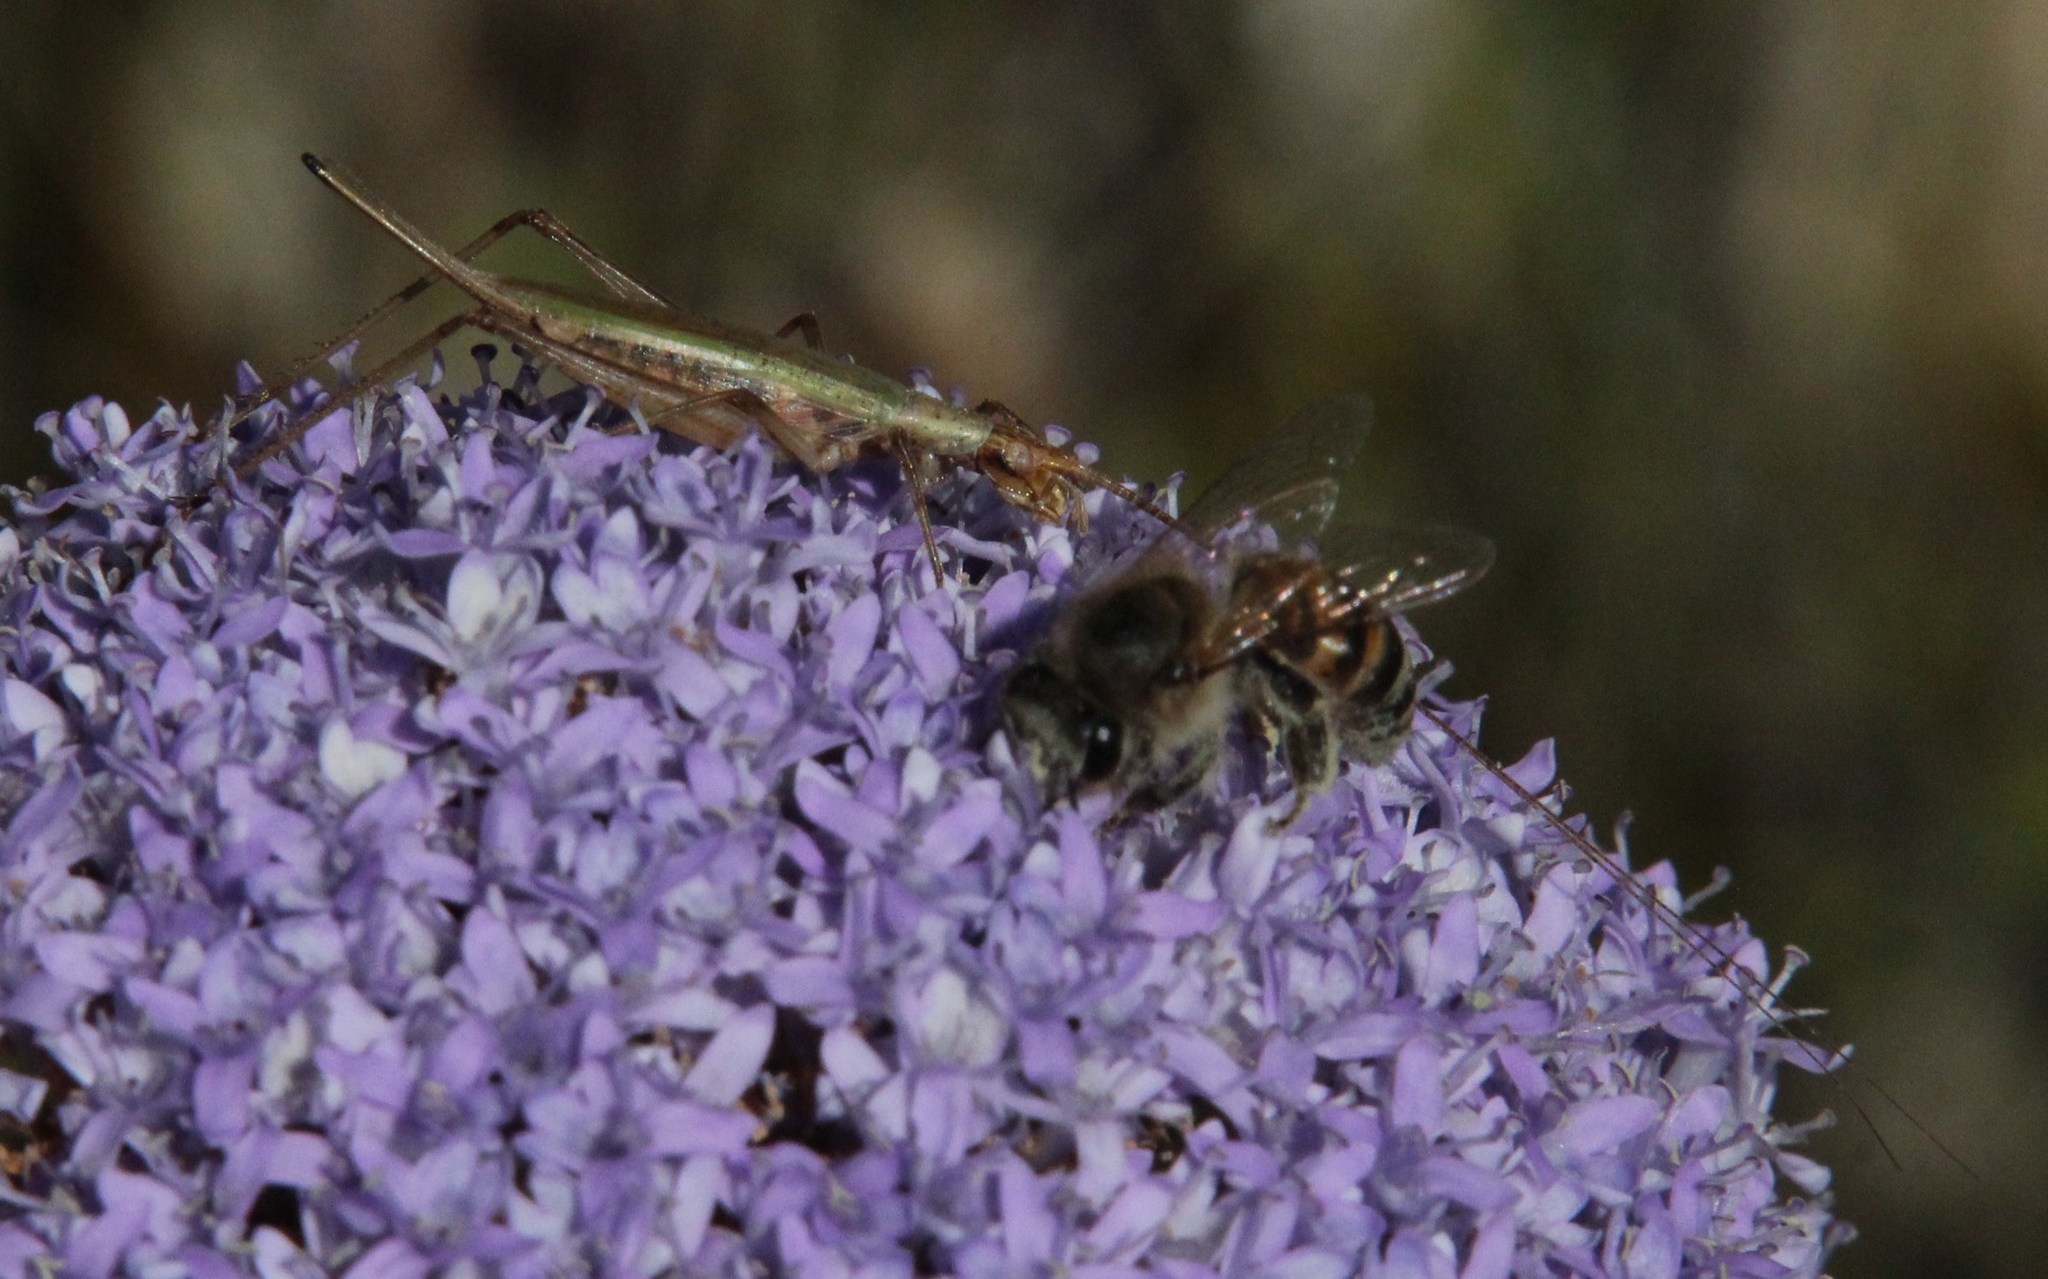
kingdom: Animalia
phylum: Arthropoda
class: Insecta
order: Orthoptera
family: Gryllidae
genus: Oecanthus
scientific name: Oecanthus capensis
